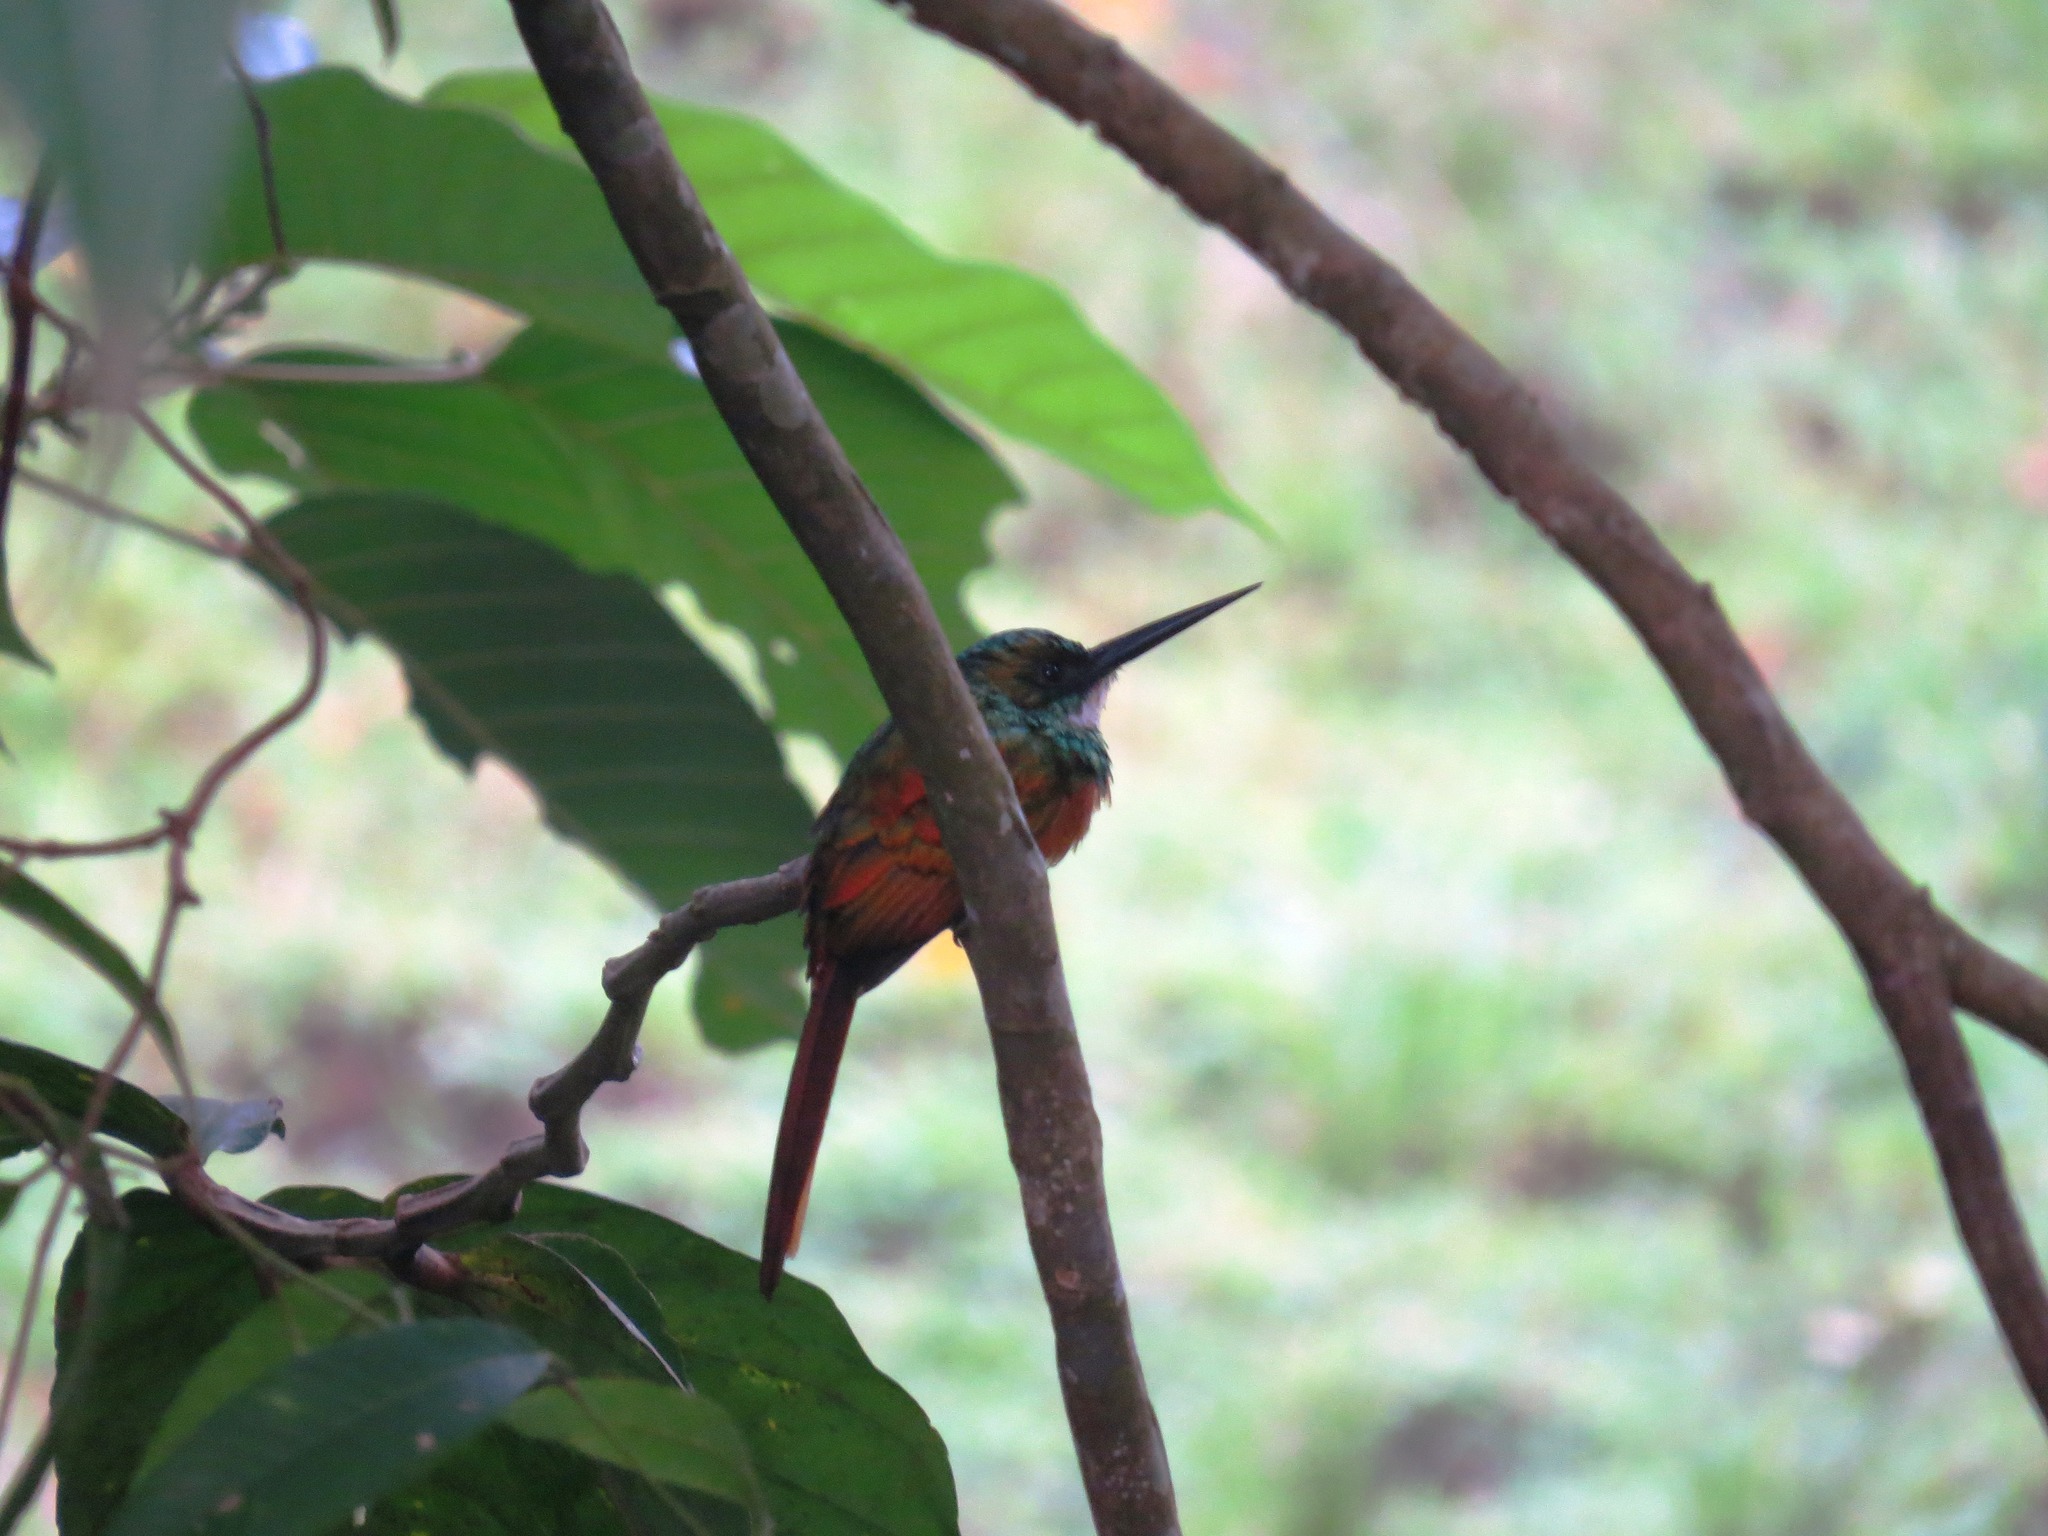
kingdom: Animalia
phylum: Chordata
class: Aves
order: Piciformes
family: Galbulidae
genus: Galbula
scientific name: Galbula ruficauda
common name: Rufous-tailed jacamar
